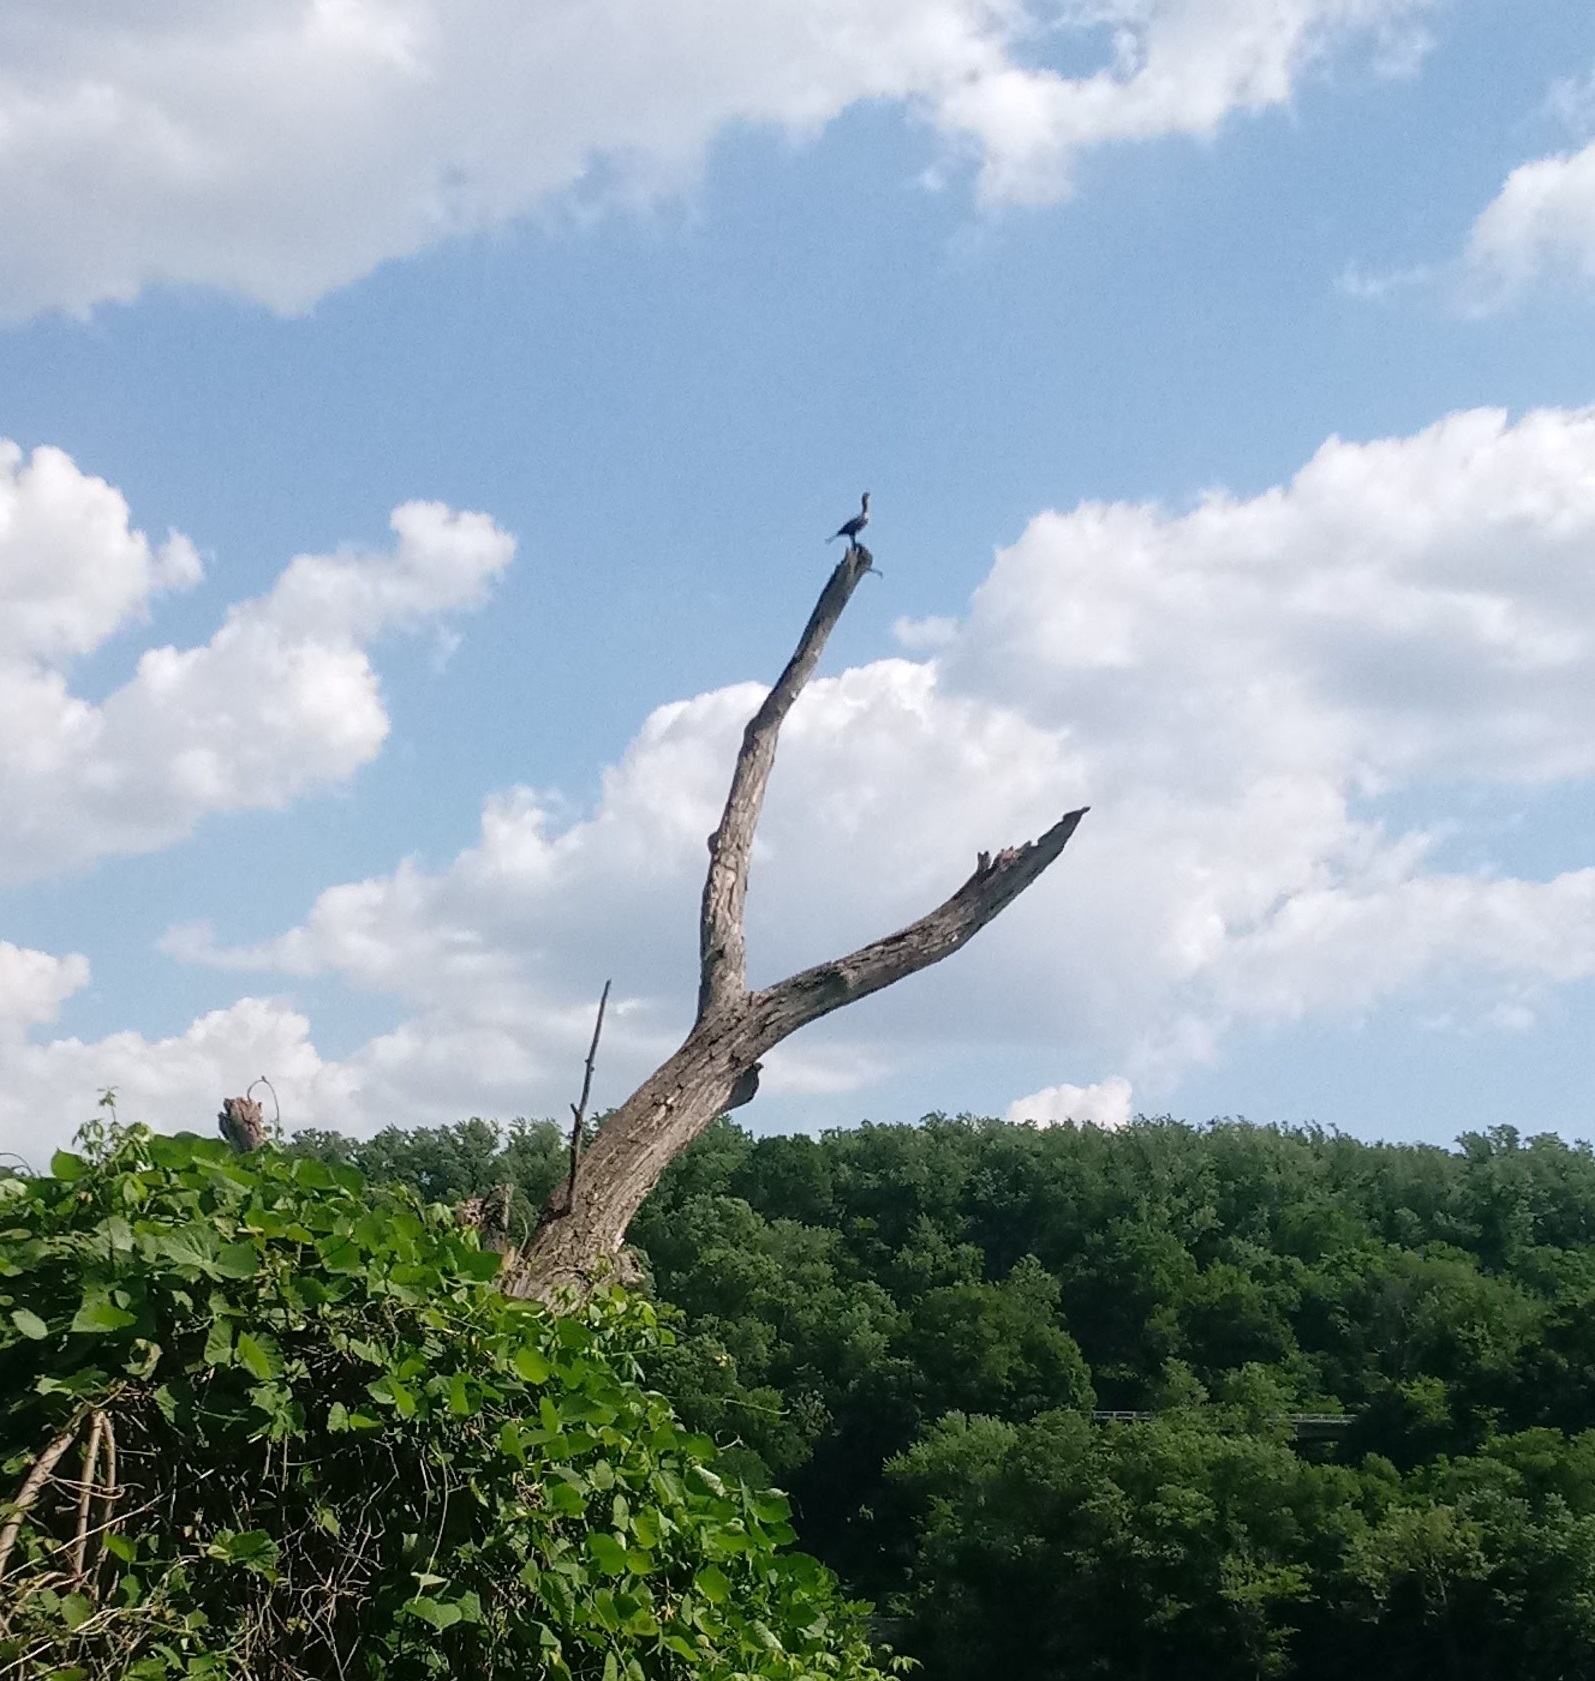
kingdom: Animalia
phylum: Chordata
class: Aves
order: Suliformes
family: Phalacrocoracidae
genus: Phalacrocorax
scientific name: Phalacrocorax auritus
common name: Double-crested cormorant
